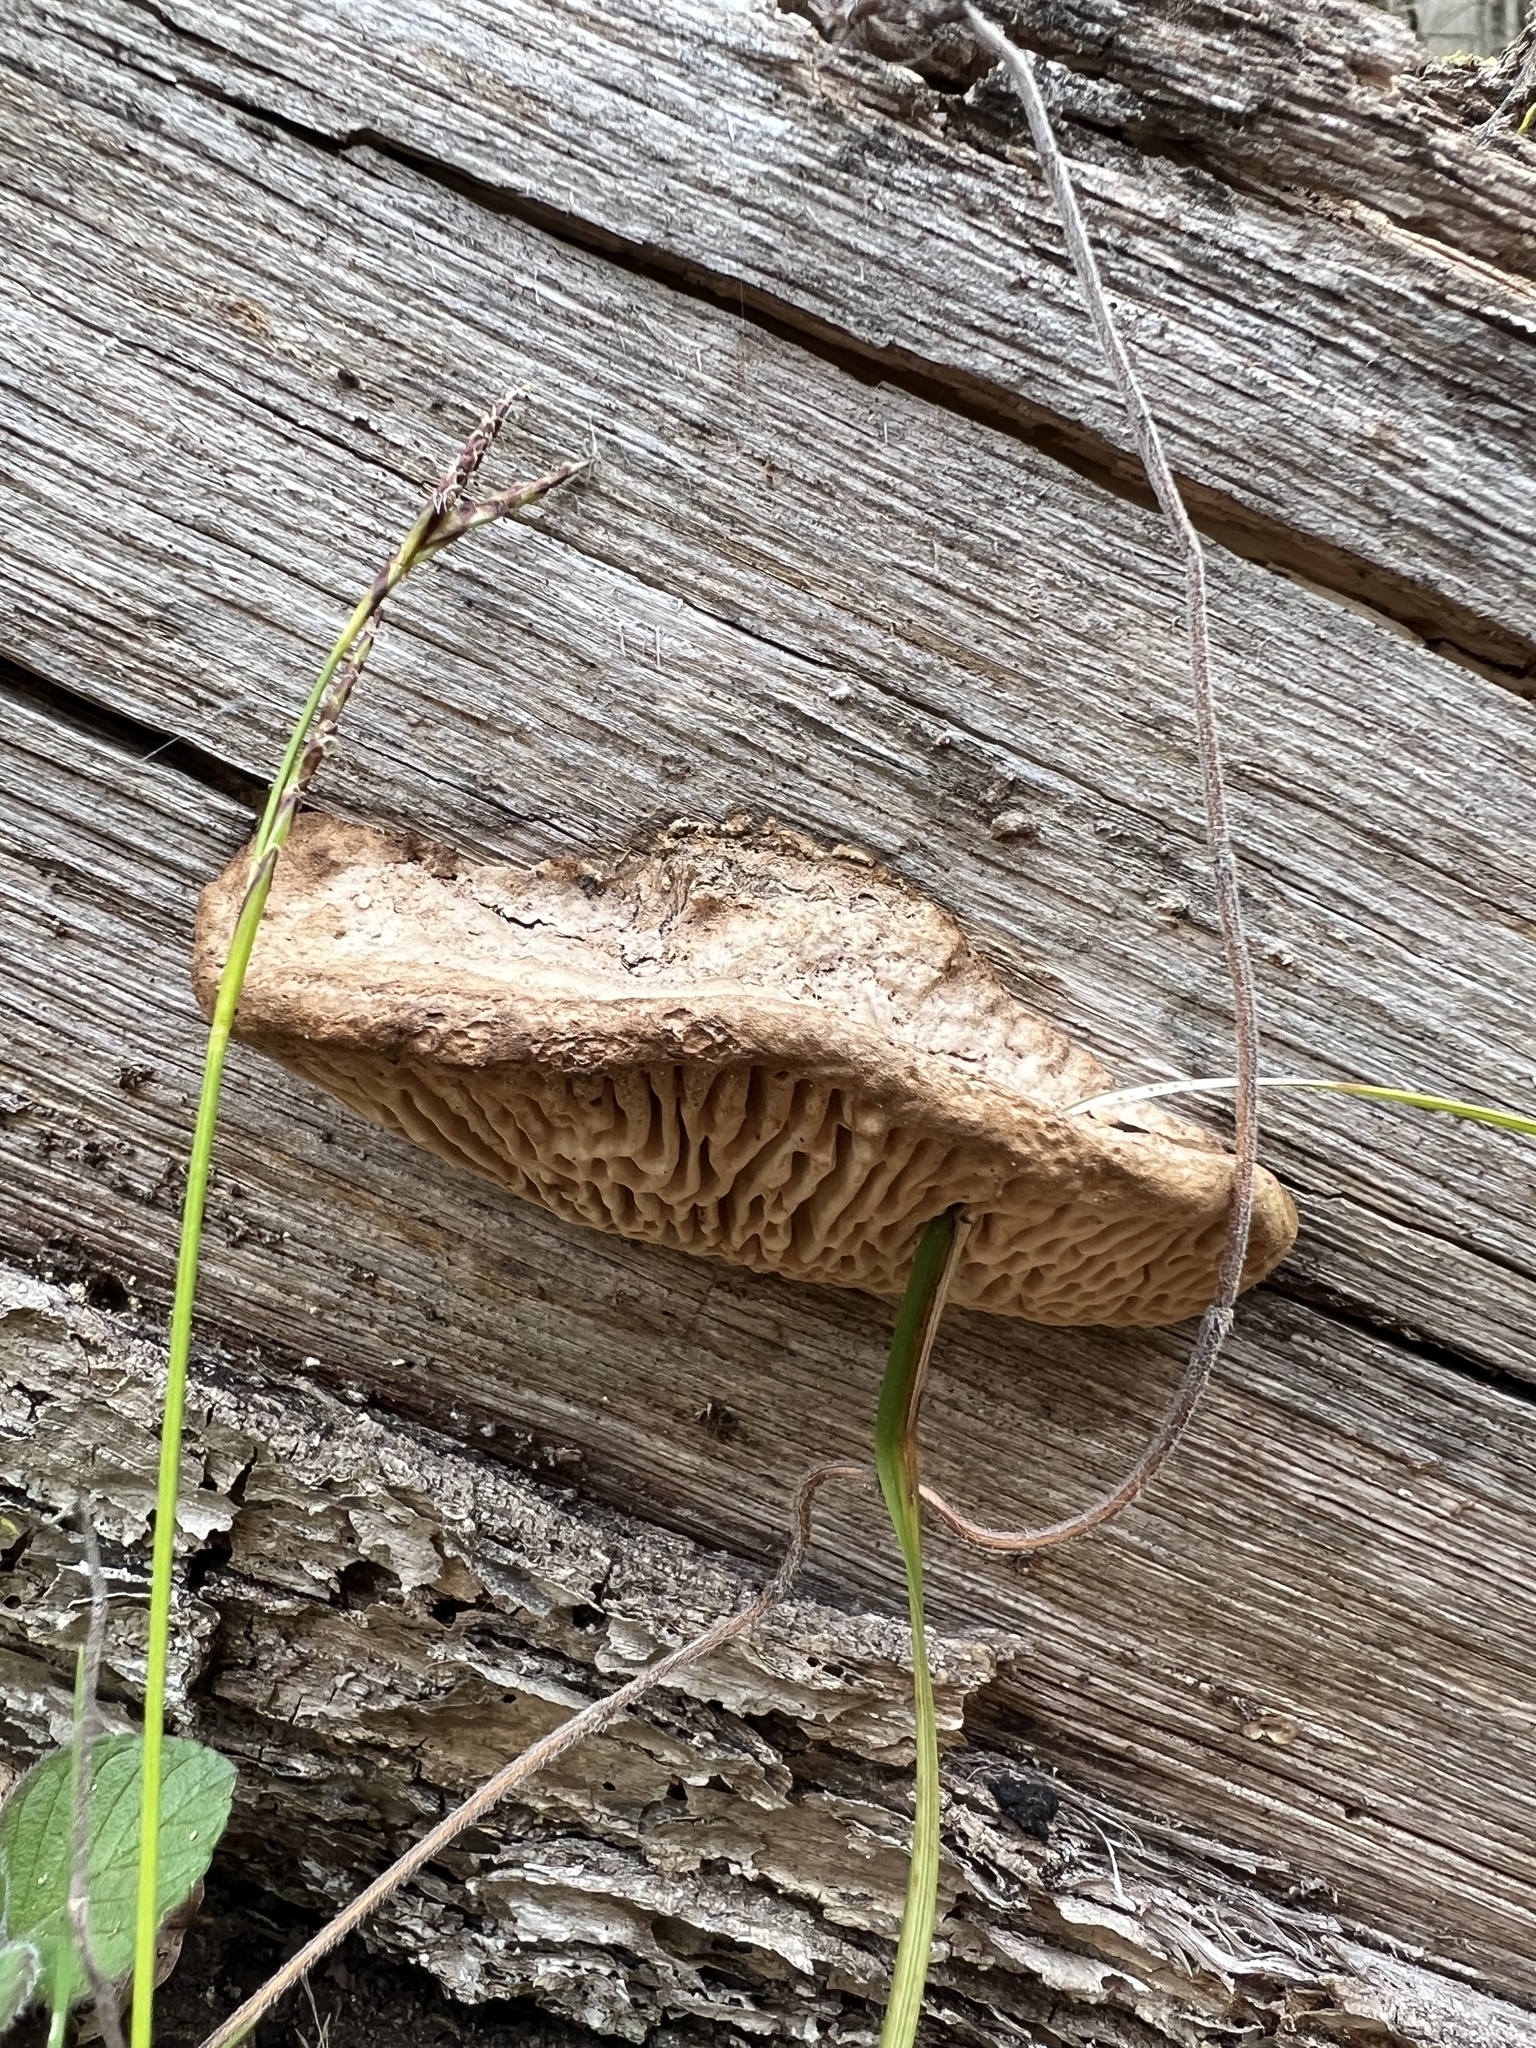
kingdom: Fungi
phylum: Basidiomycota
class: Agaricomycetes
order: Polyporales
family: Fomitopsidaceae
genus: Fomitopsis
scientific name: Fomitopsis
